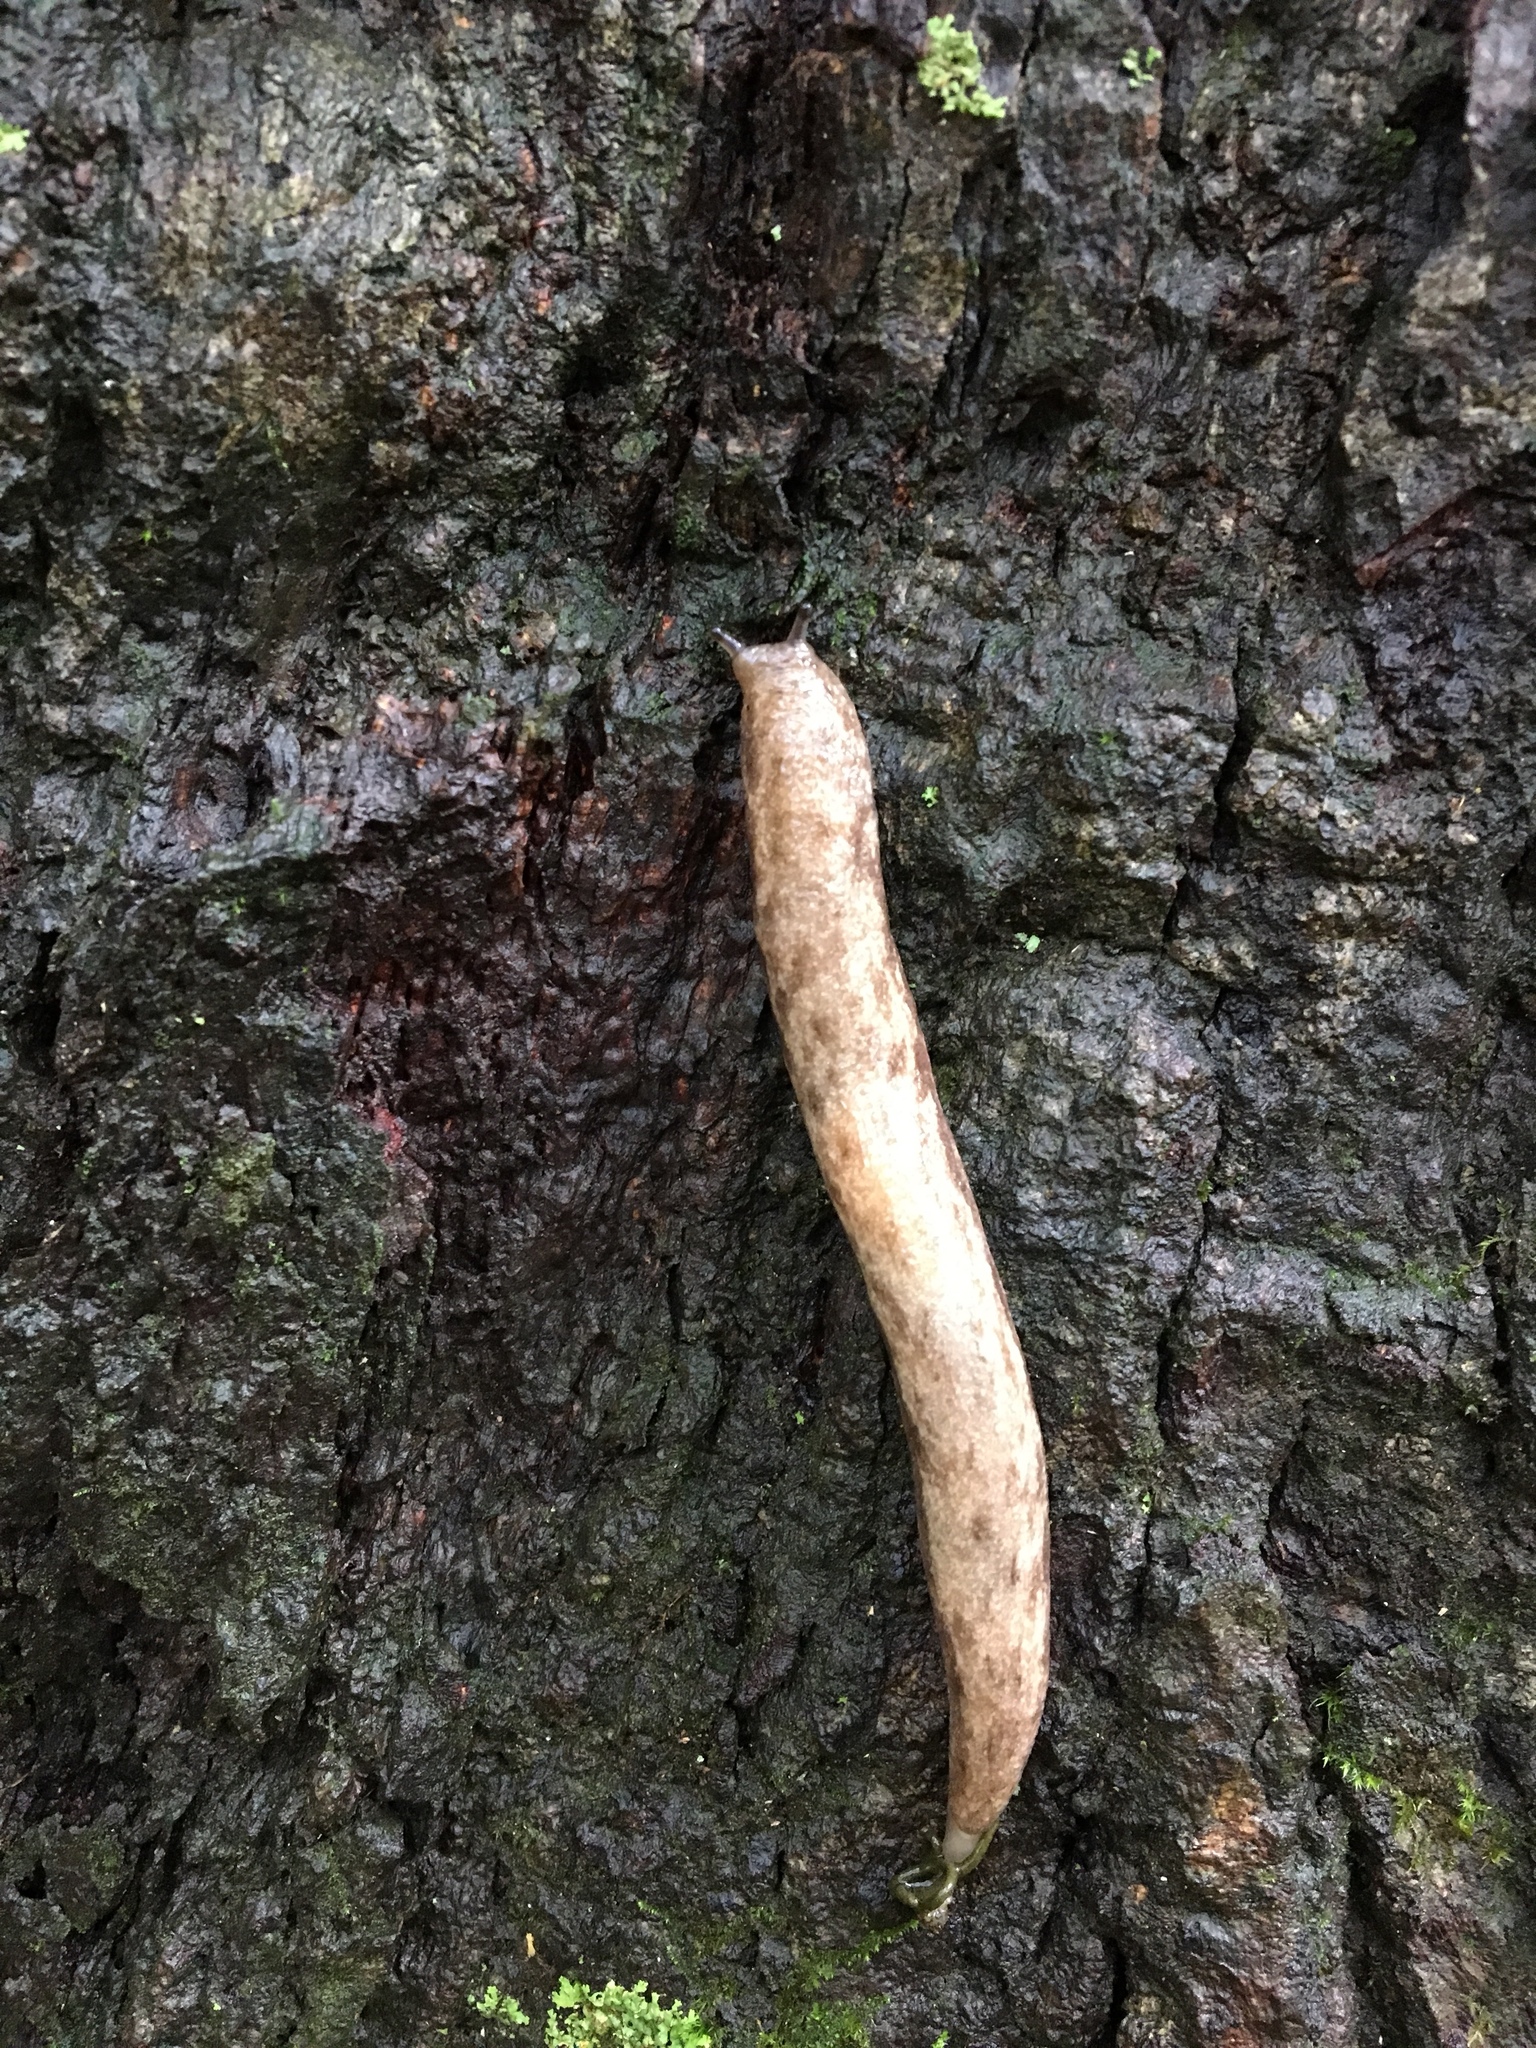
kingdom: Animalia
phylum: Mollusca
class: Gastropoda
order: Stylommatophora
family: Philomycidae
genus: Megapallifera
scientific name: Megapallifera mutabilis
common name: Changeable mantleslug
